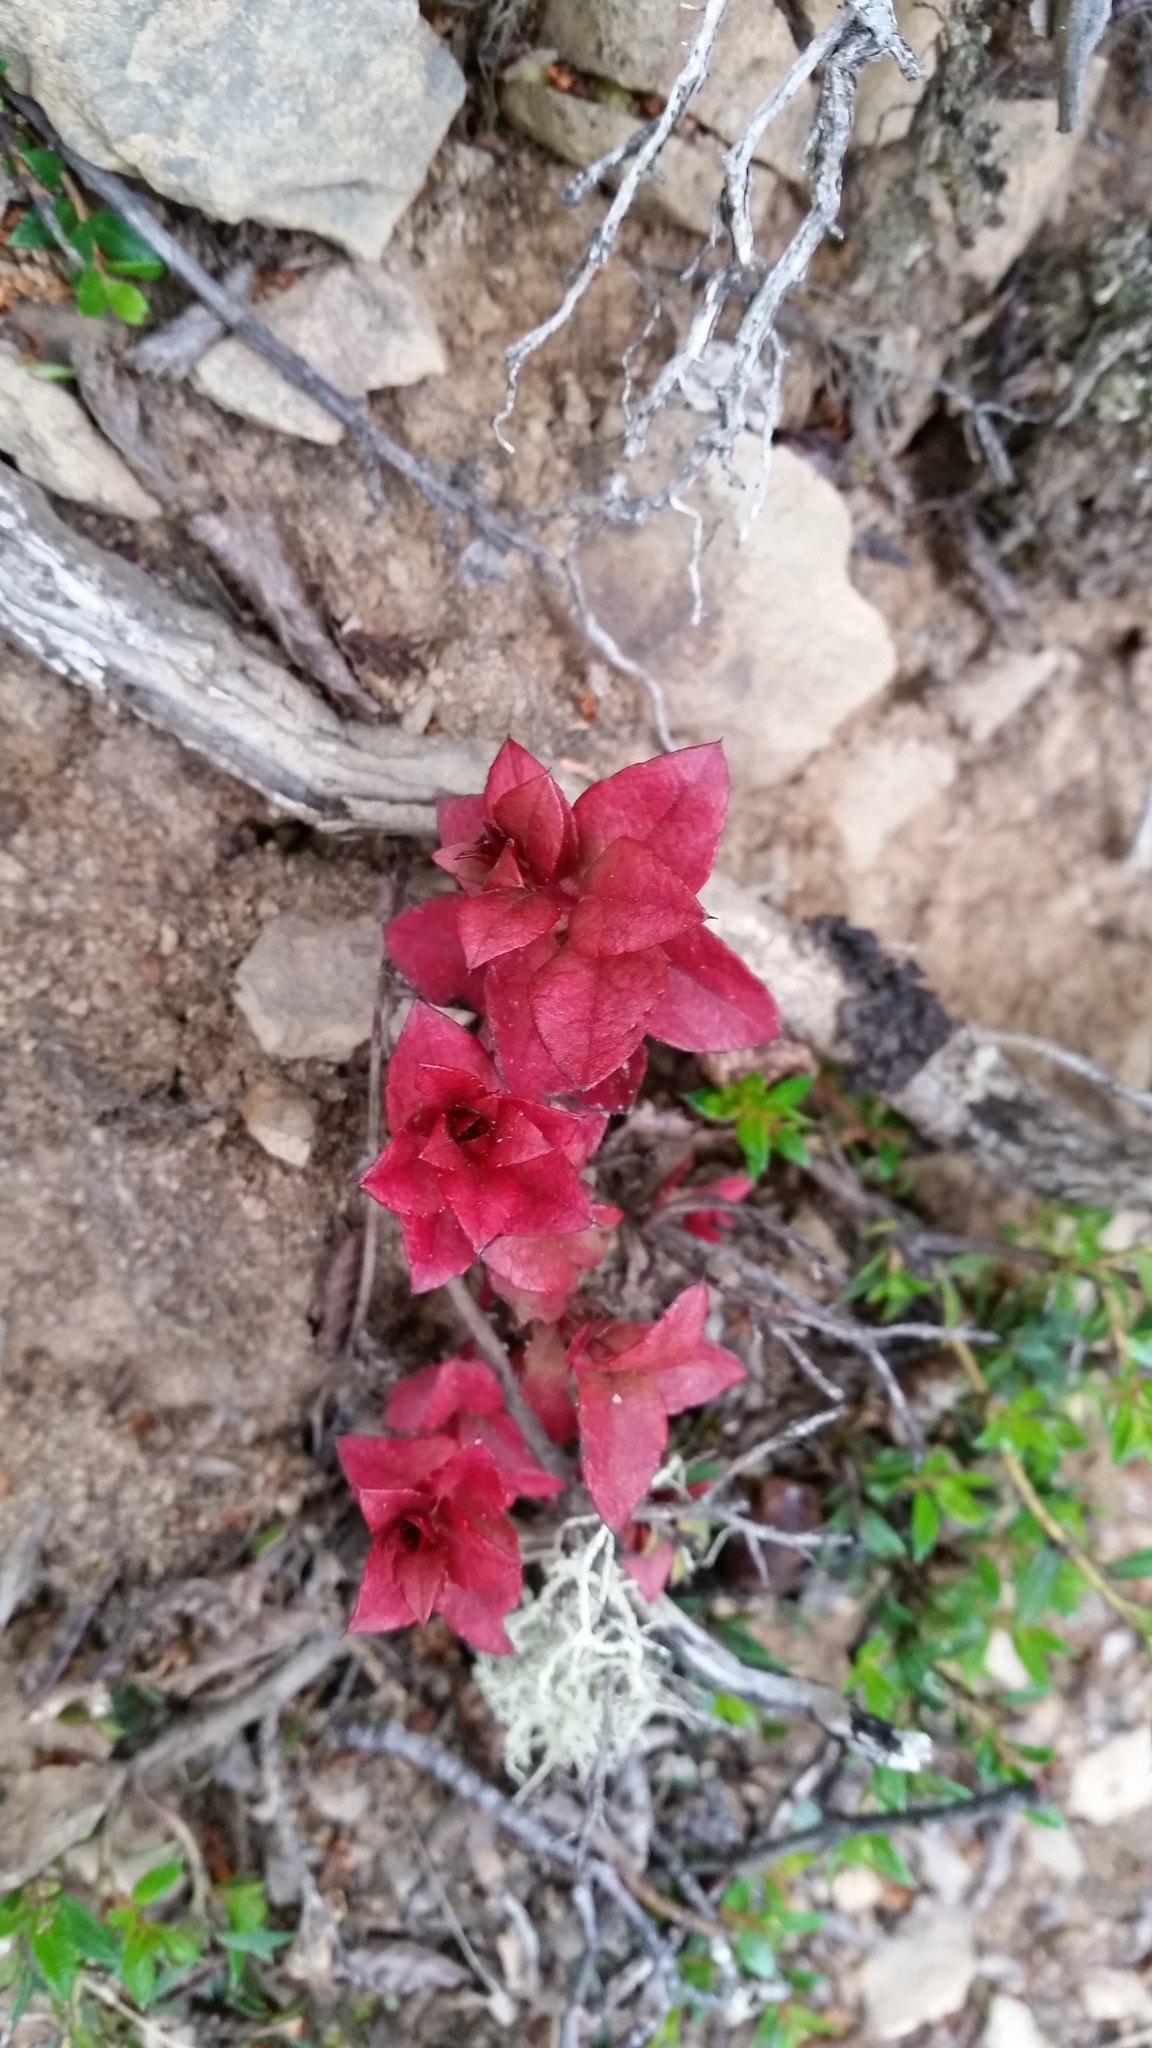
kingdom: Fungi
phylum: Basidiomycota
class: Exobasidiomycetes
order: Exobasidiales
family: Exobasidiaceae
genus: Exobasidium
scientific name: Exobasidium gomezii
